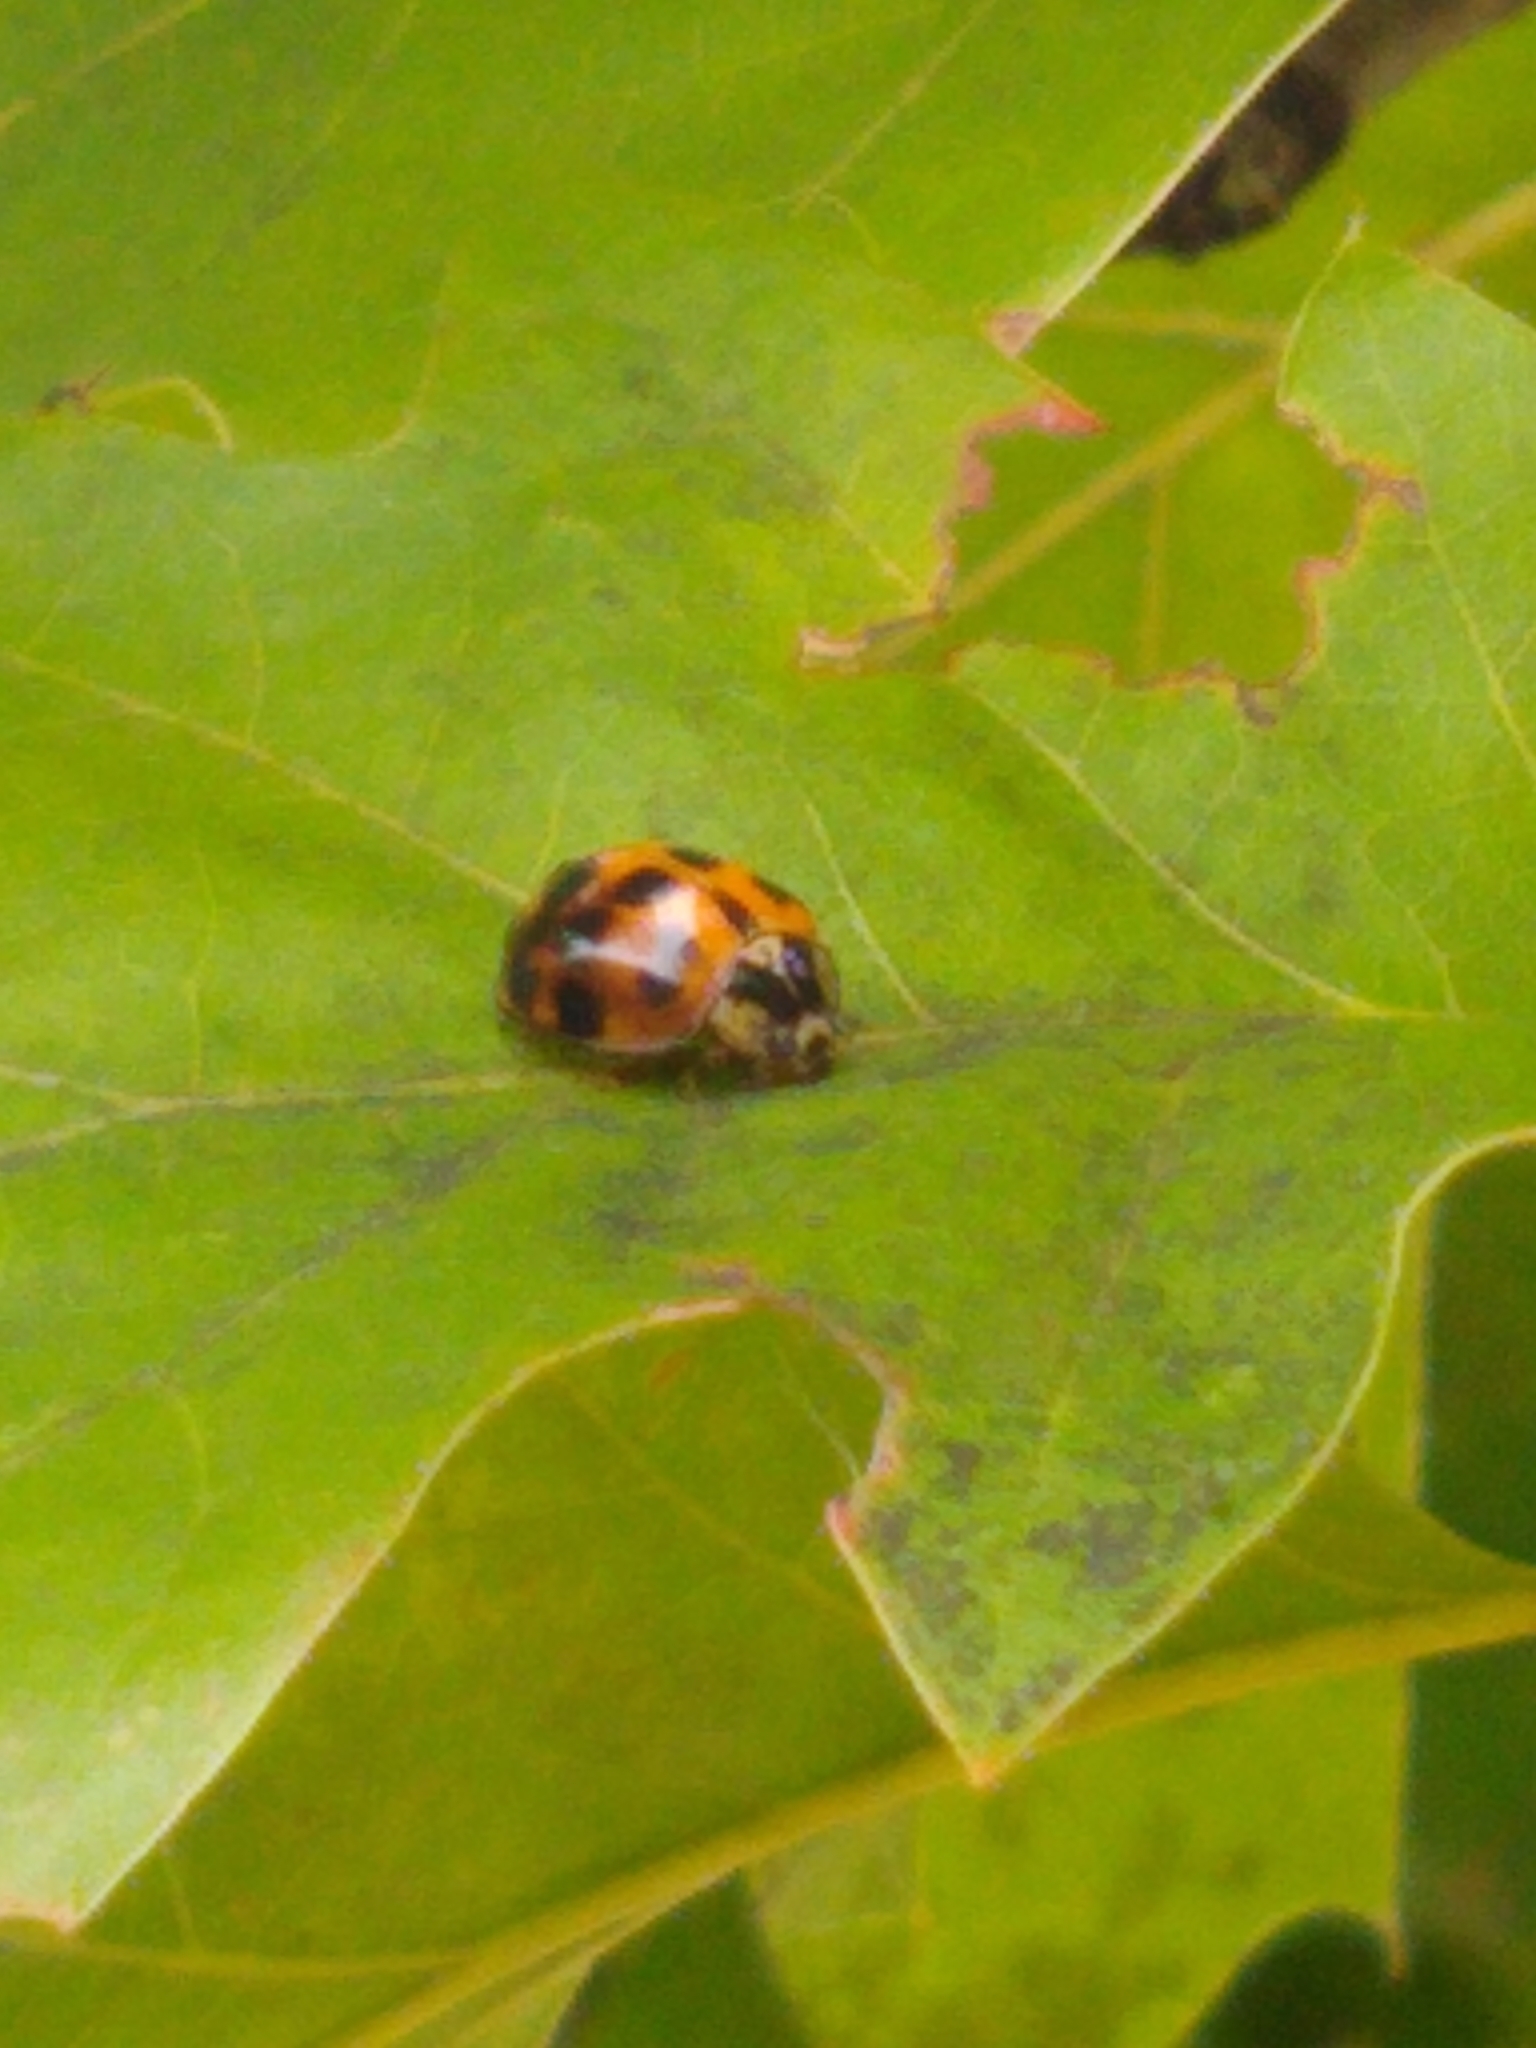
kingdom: Animalia
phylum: Arthropoda
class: Insecta
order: Coleoptera
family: Coccinellidae
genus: Harmonia
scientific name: Harmonia axyridis
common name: Harlequin ladybird
